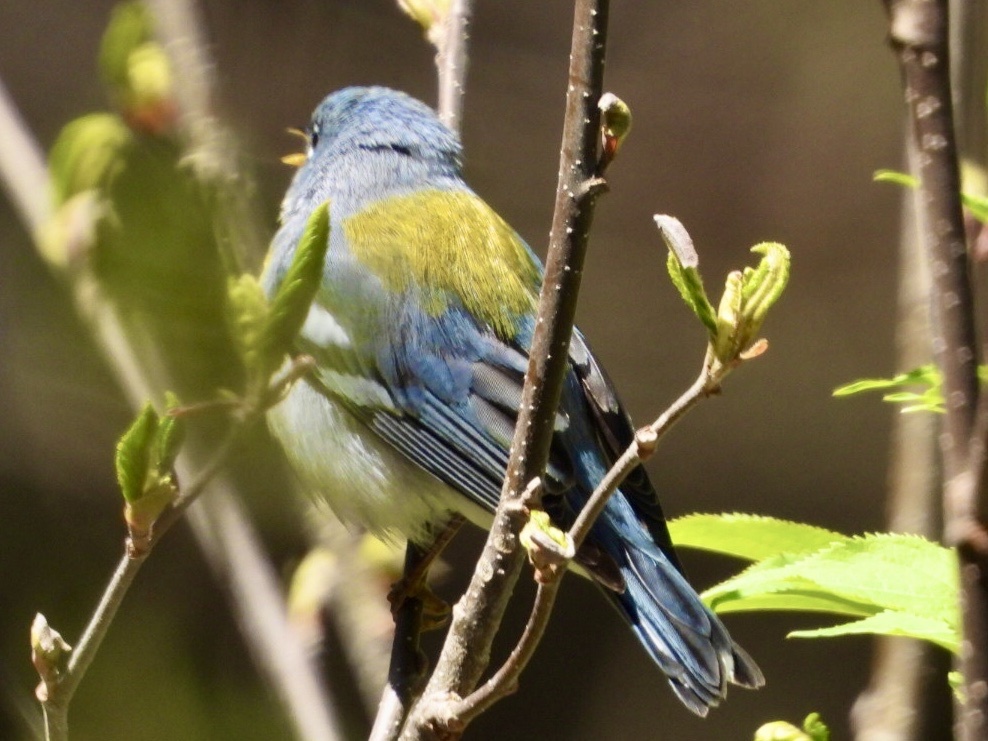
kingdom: Animalia
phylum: Chordata
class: Aves
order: Passeriformes
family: Parulidae
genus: Setophaga
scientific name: Setophaga americana
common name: Northern parula
